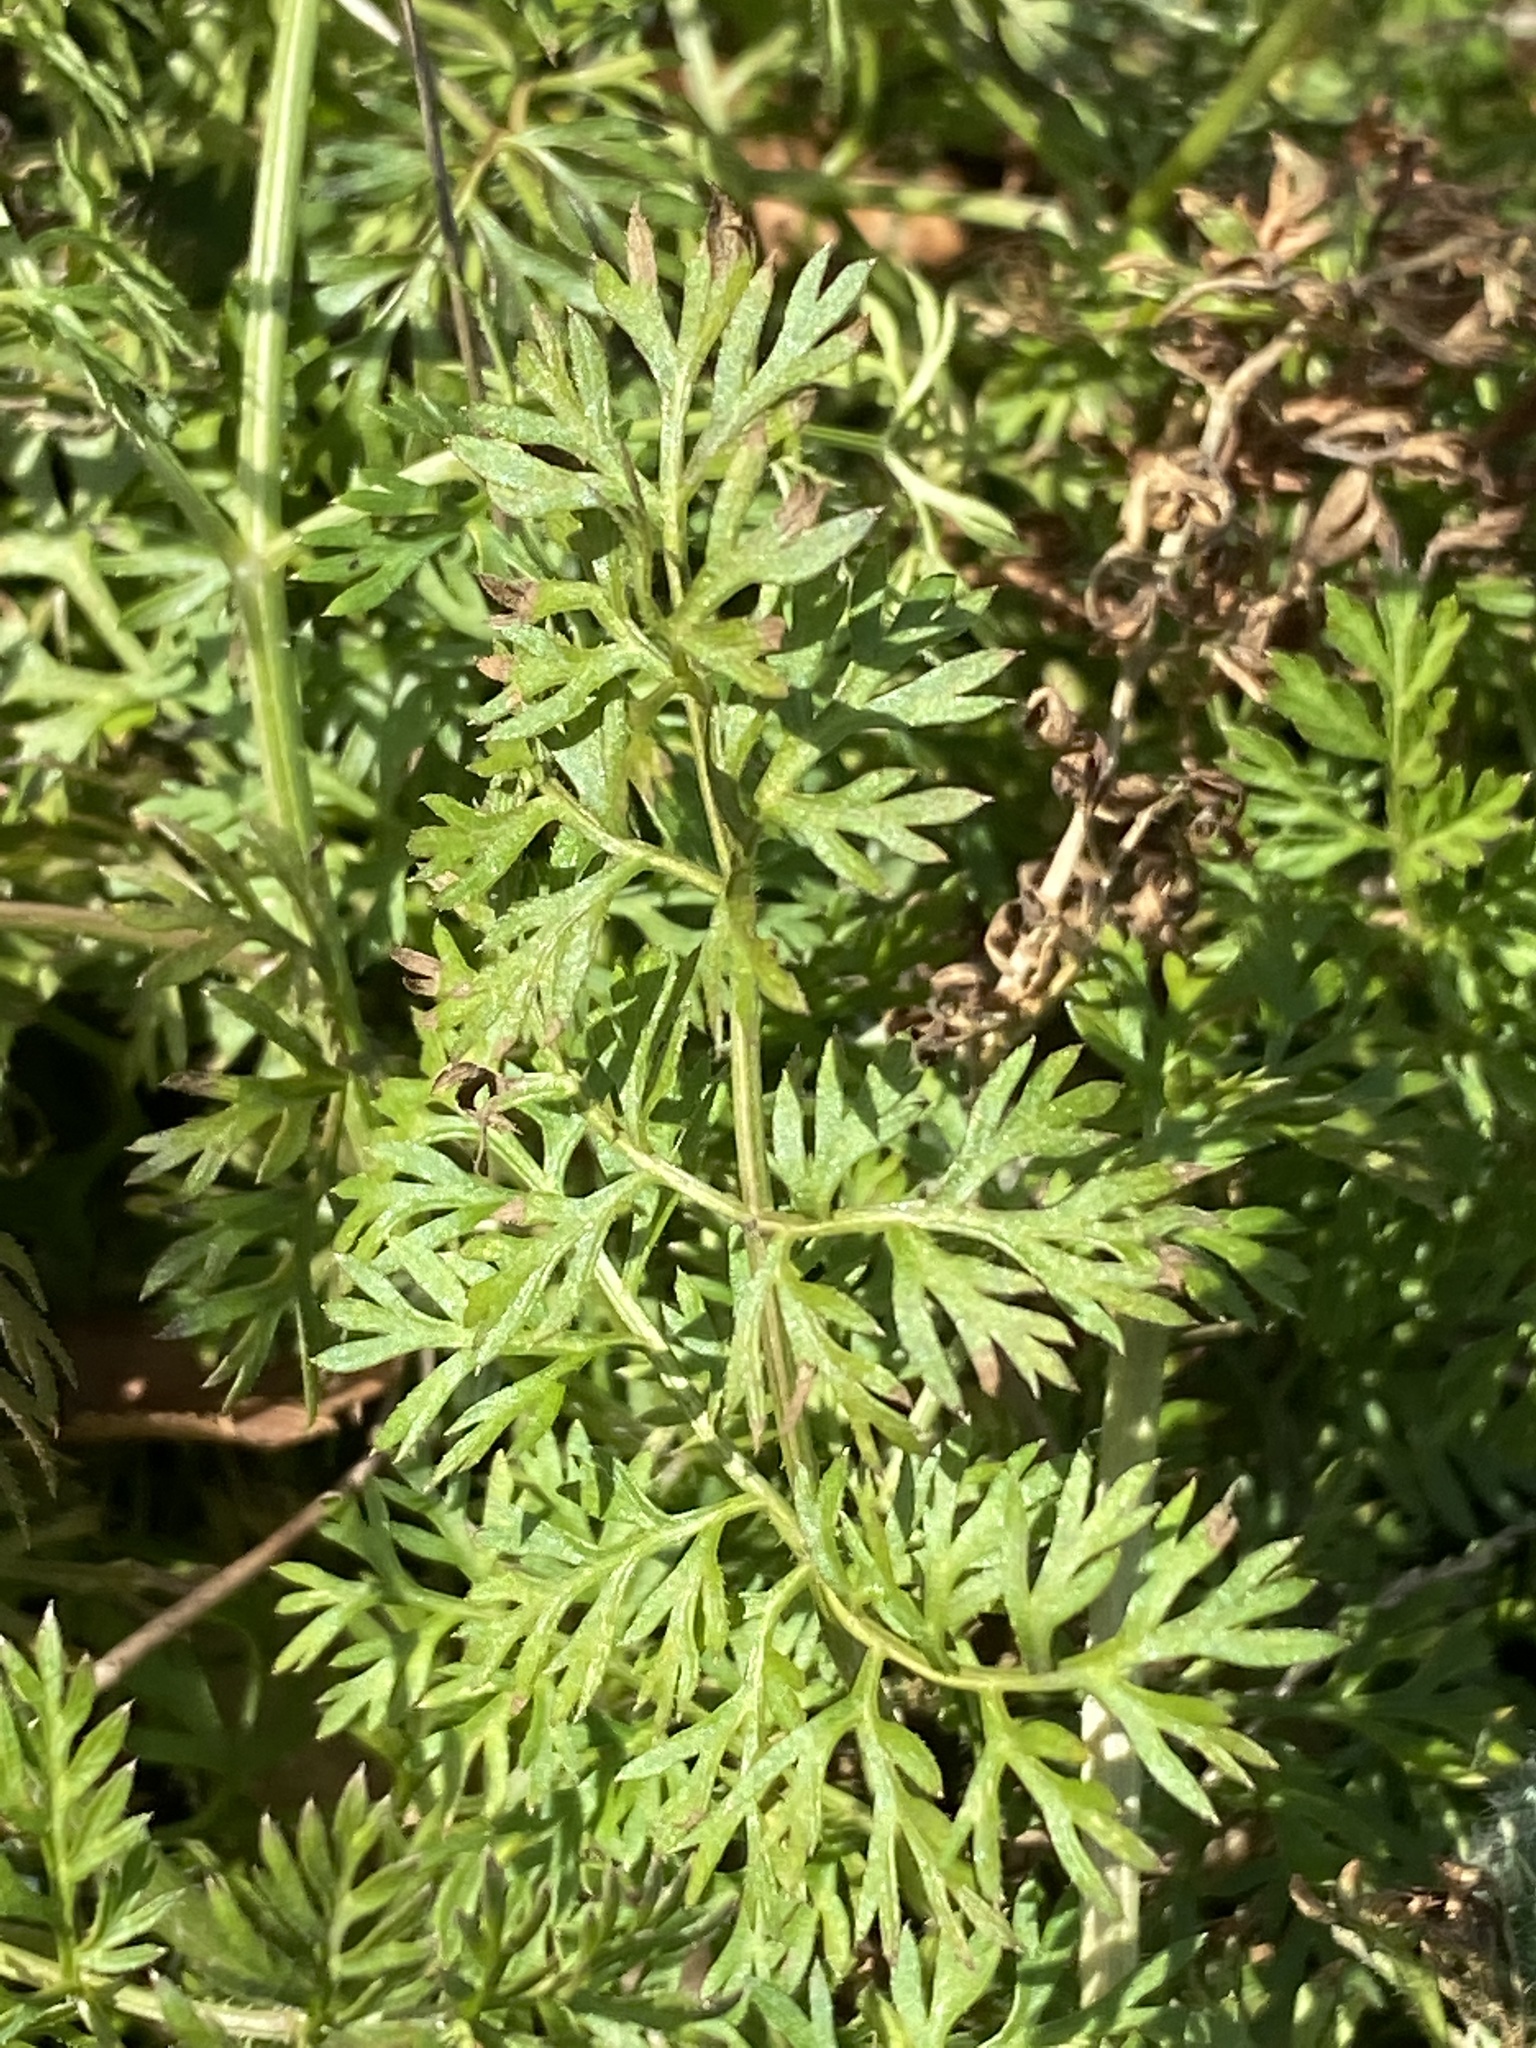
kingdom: Plantae
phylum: Tracheophyta
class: Magnoliopsida
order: Apiales
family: Apiaceae
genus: Daucus
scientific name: Daucus carota
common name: Wild carrot
